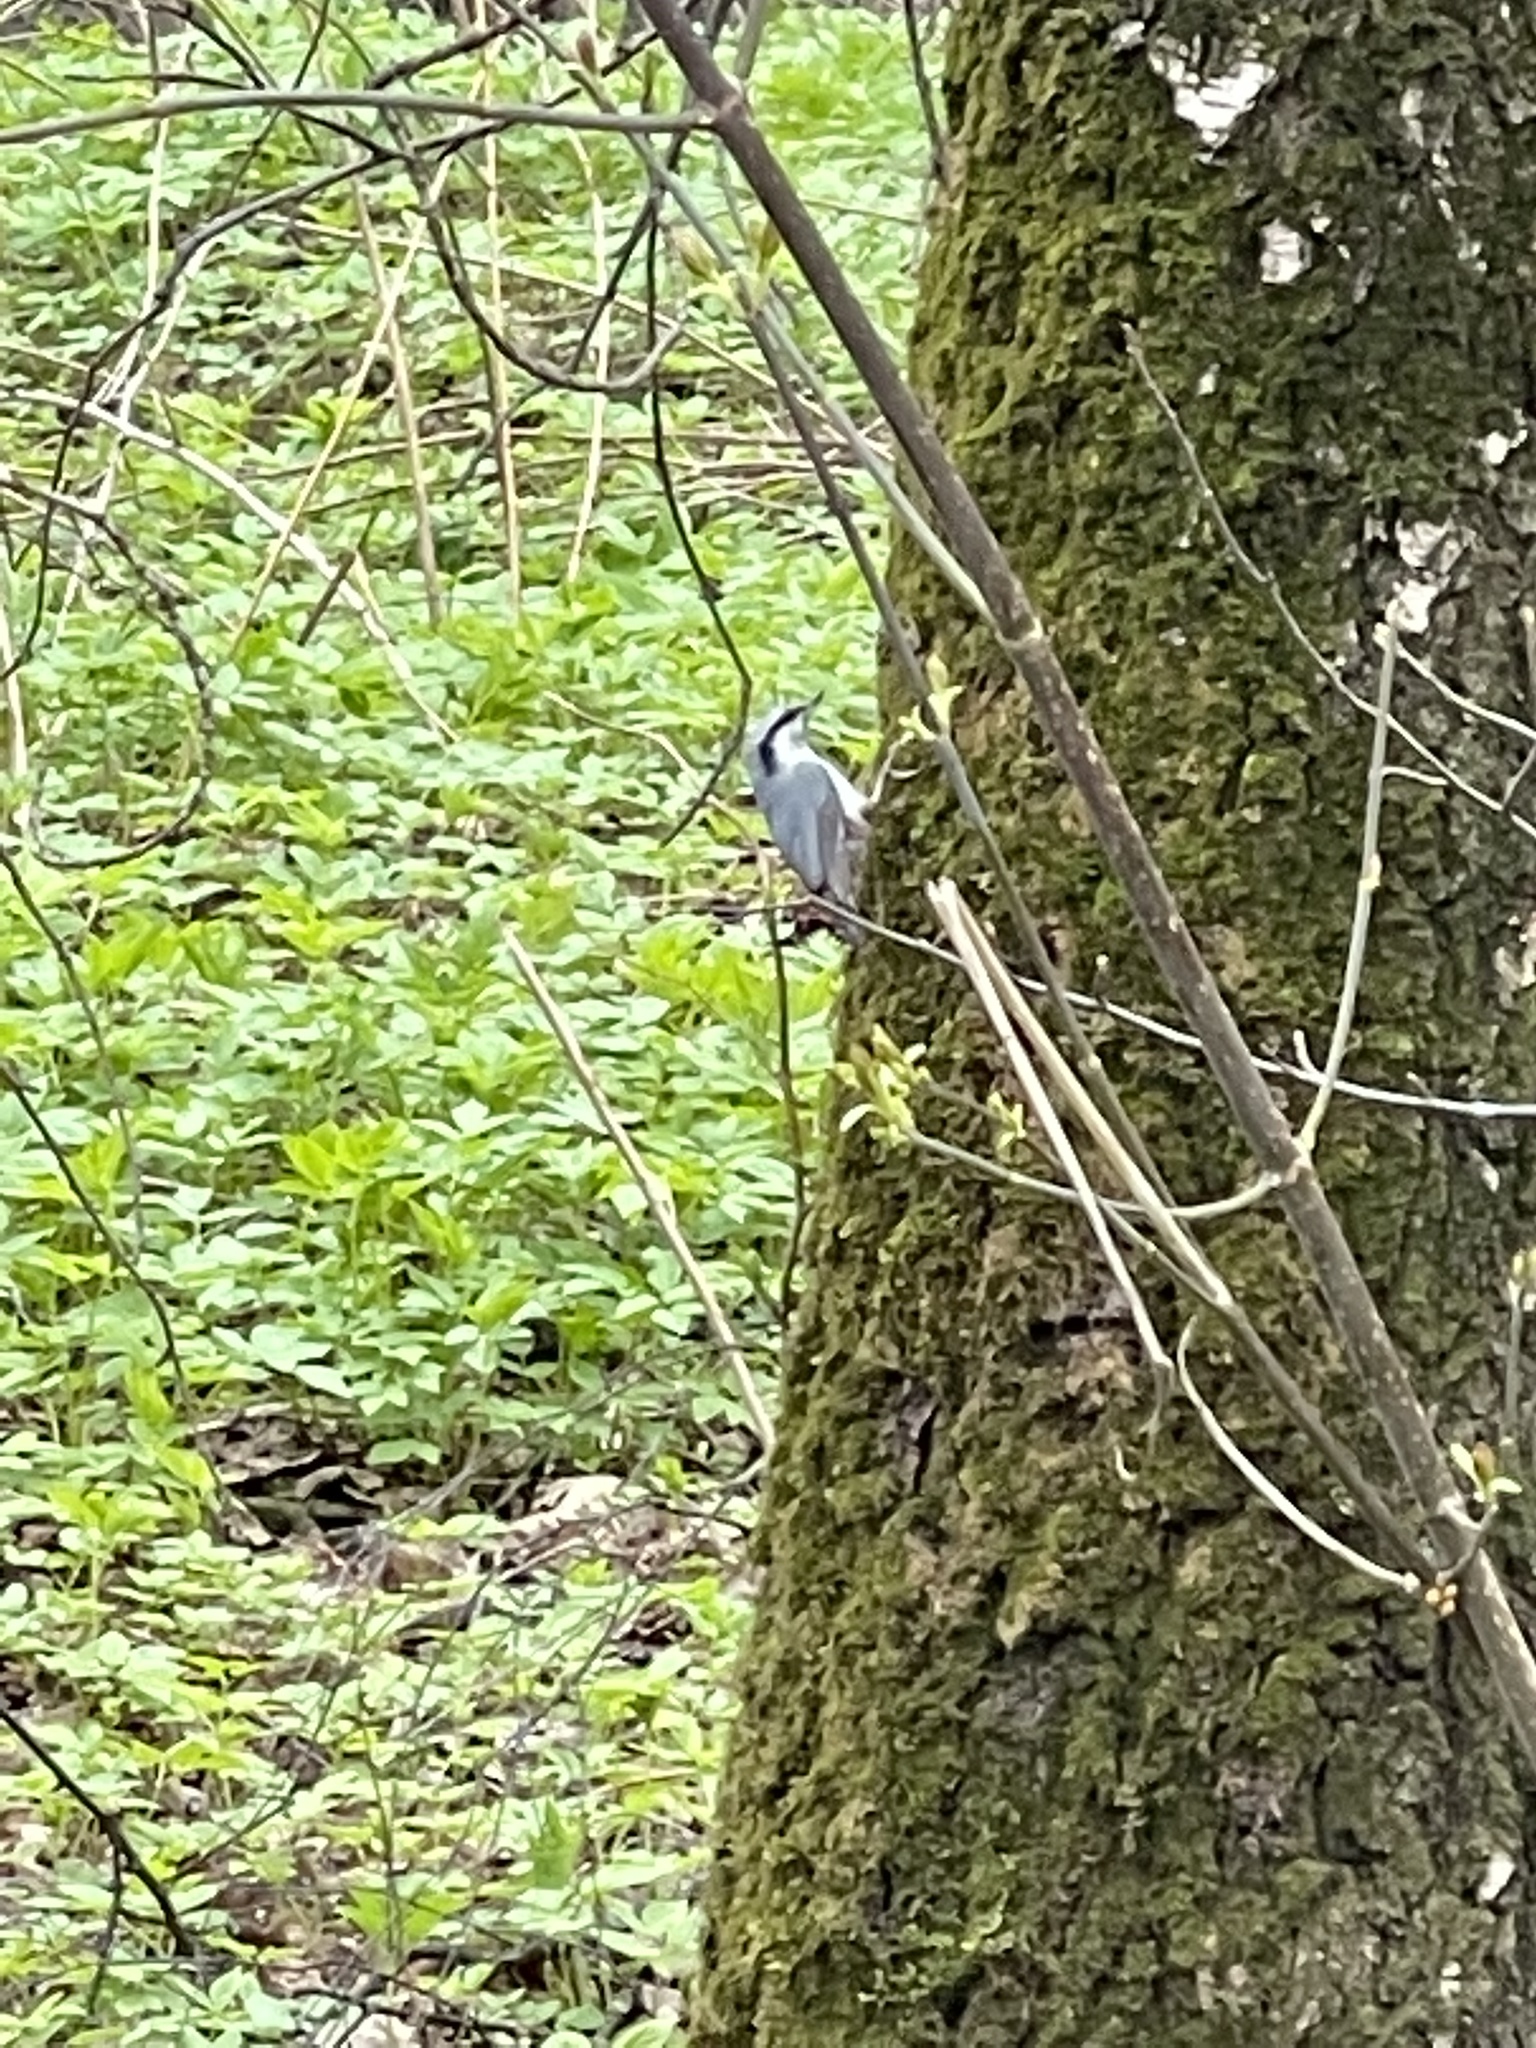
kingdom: Animalia
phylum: Chordata
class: Aves
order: Passeriformes
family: Sittidae
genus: Sitta
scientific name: Sitta europaea
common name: Eurasian nuthatch
